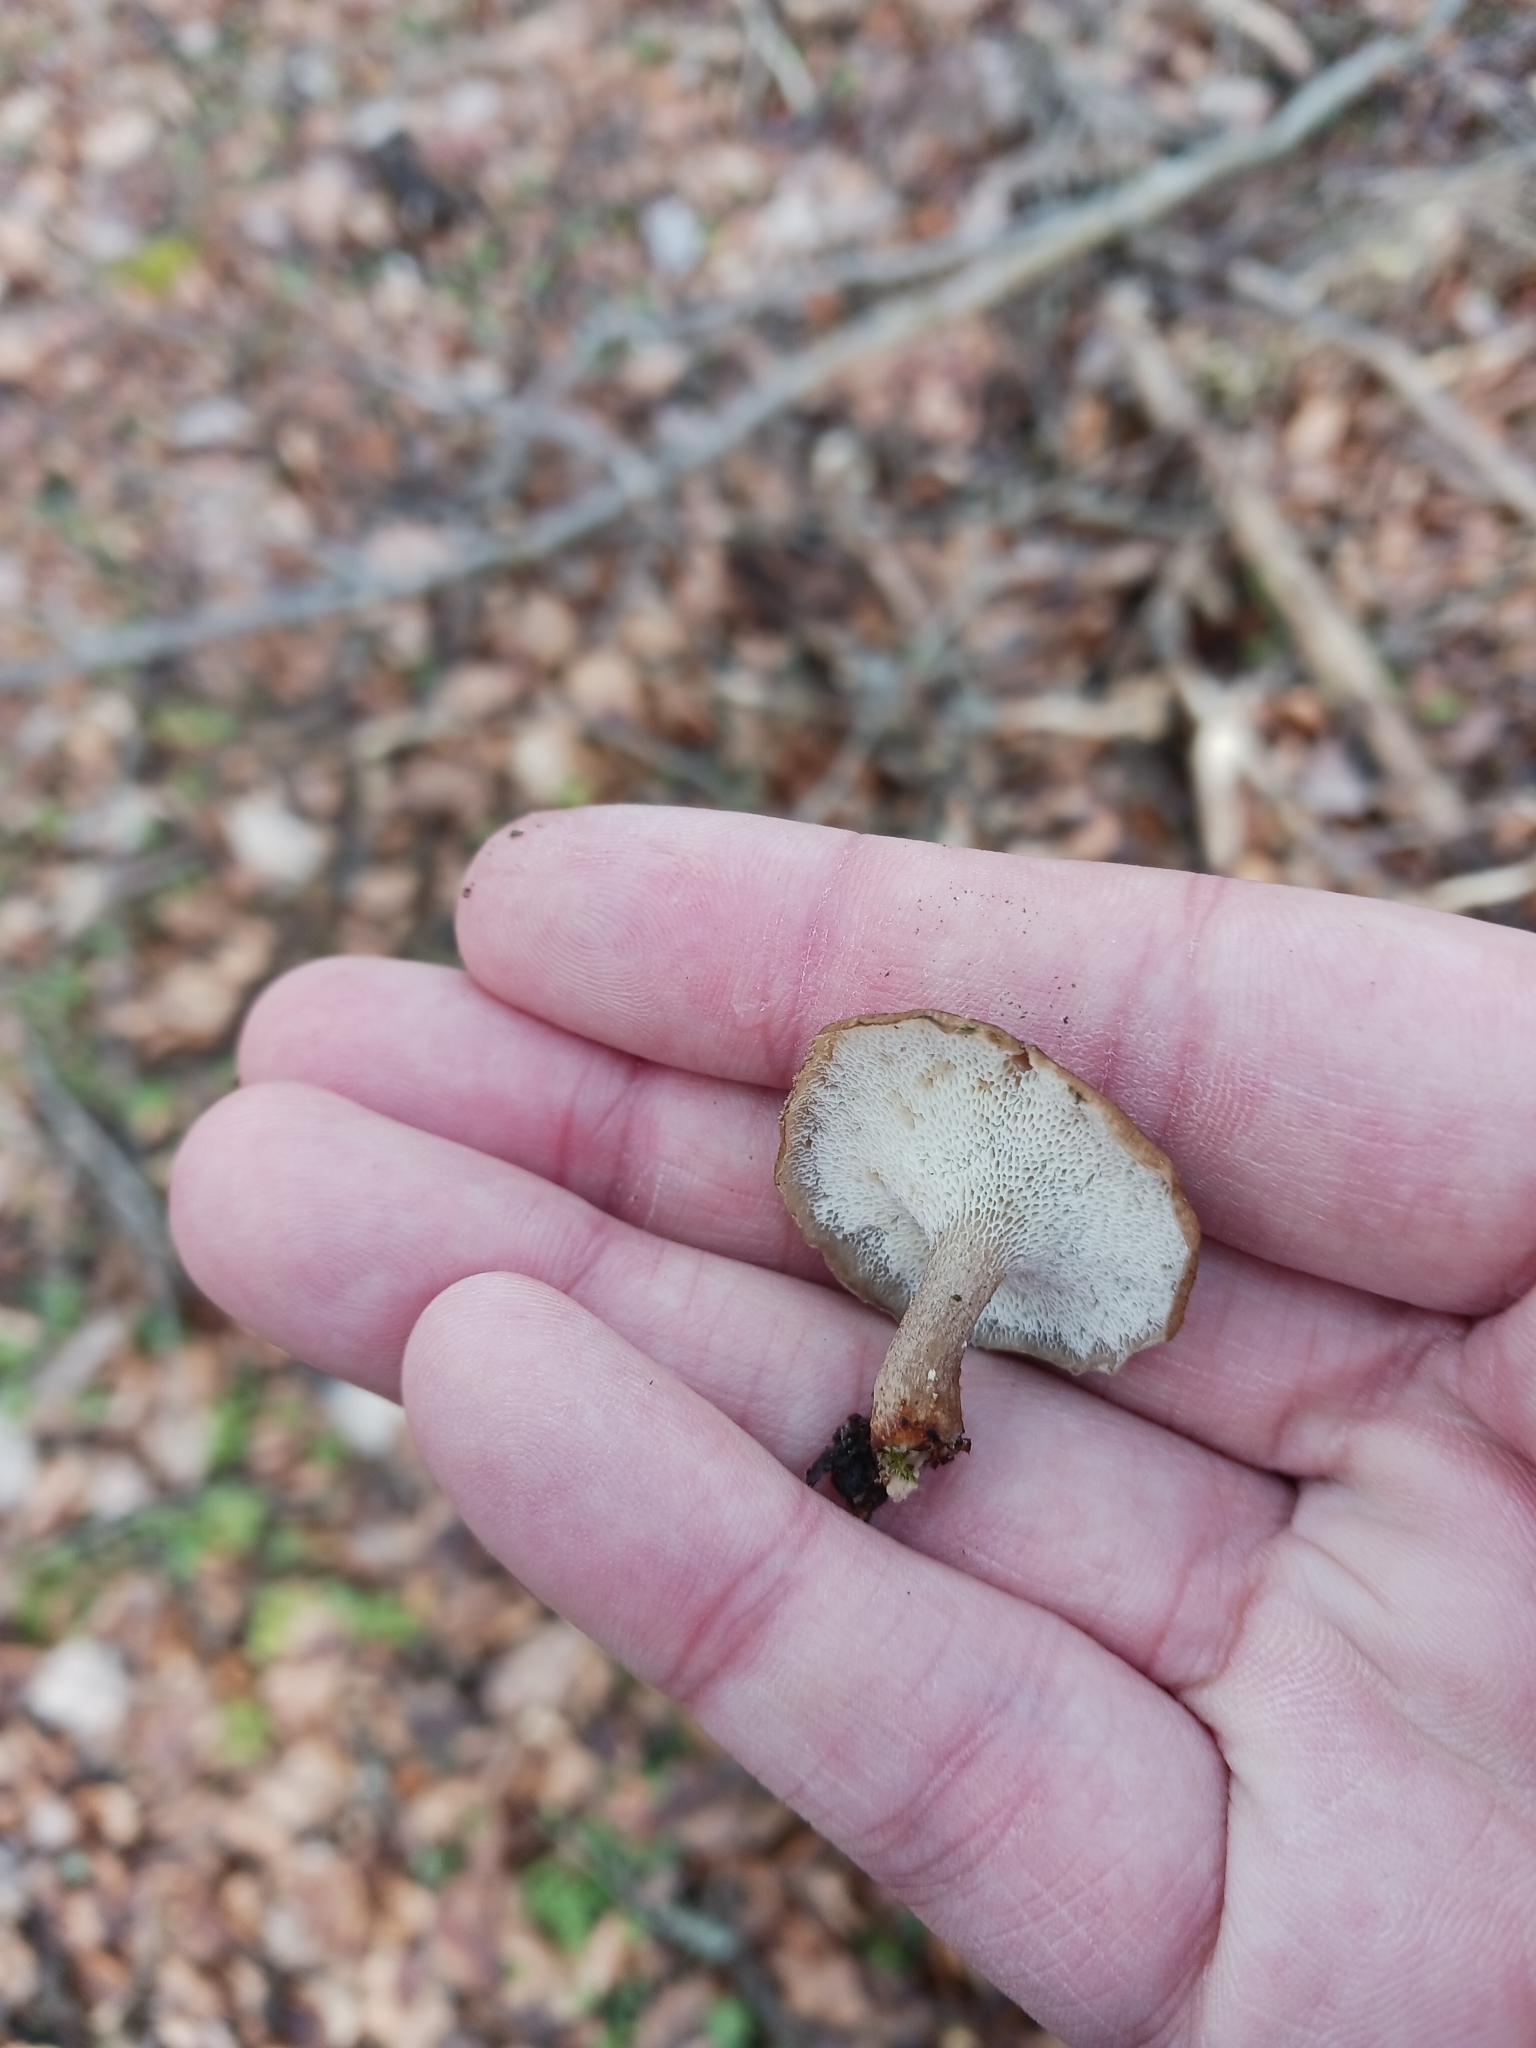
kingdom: Fungi
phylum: Basidiomycota
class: Agaricomycetes
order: Polyporales
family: Polyporaceae
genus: Lentinus
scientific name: Lentinus brumalis
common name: Winter polypore
